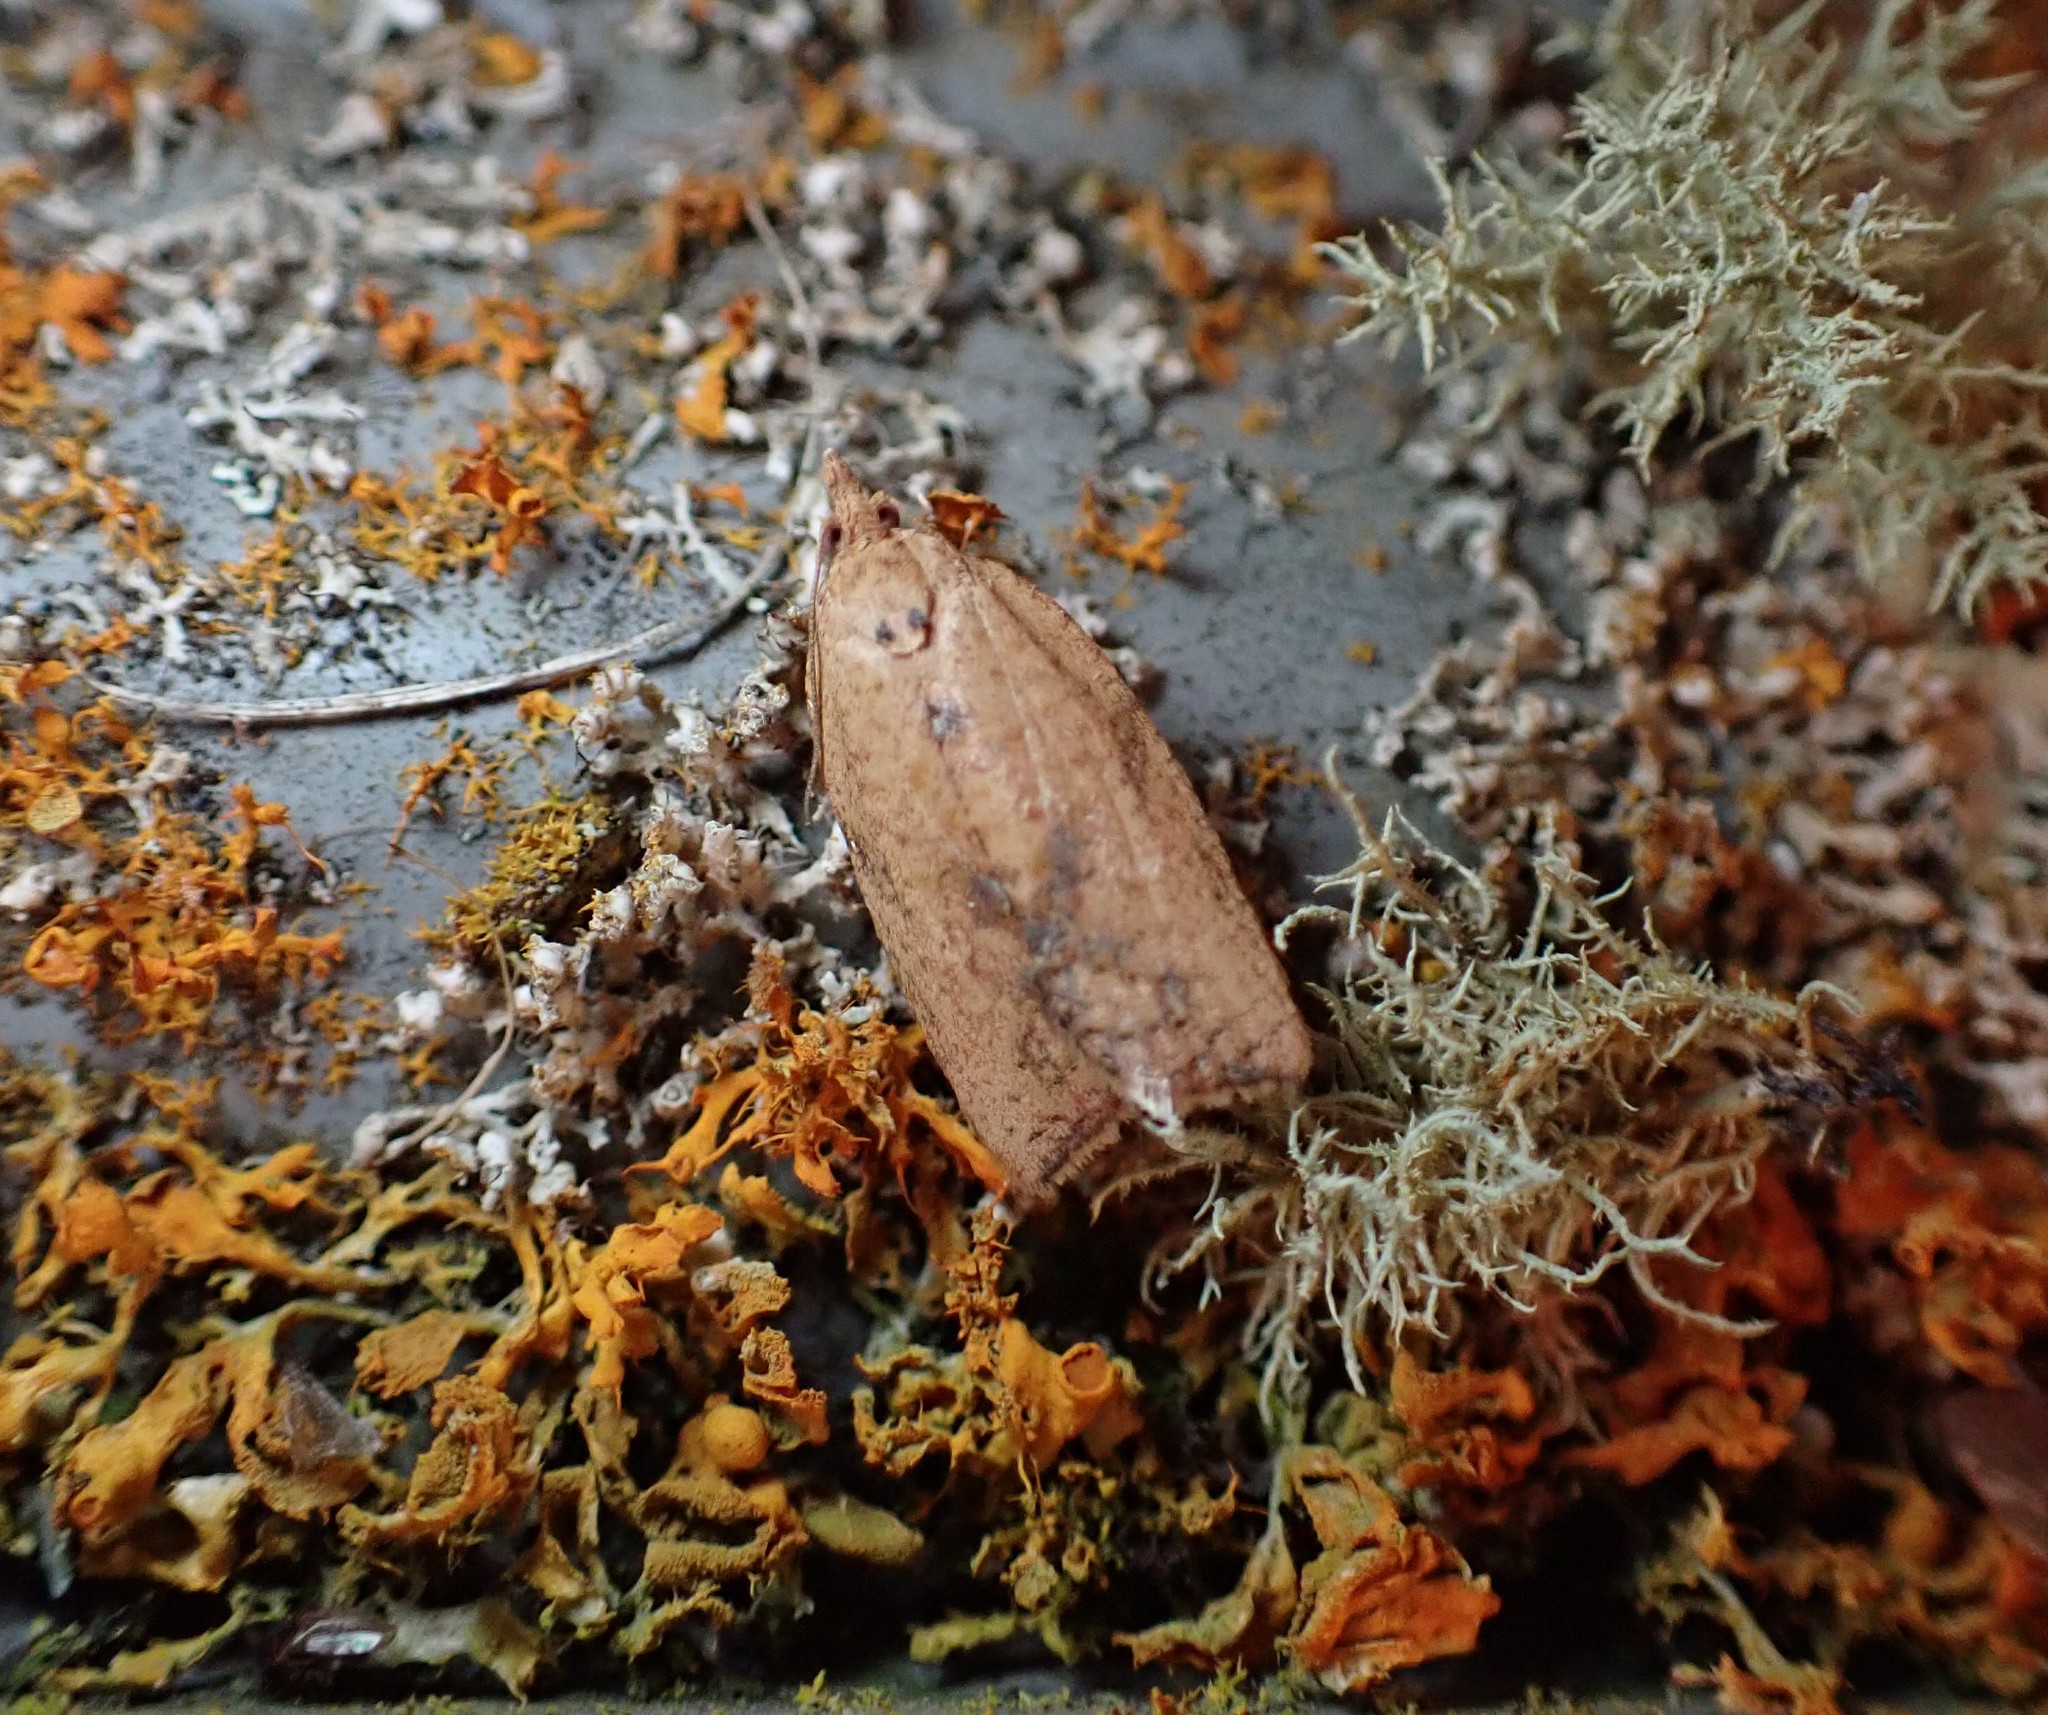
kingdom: Animalia
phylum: Arthropoda
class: Insecta
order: Lepidoptera
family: Tortricidae
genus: Epiphyas
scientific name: Epiphyas postvittana
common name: Light brown apple moth
